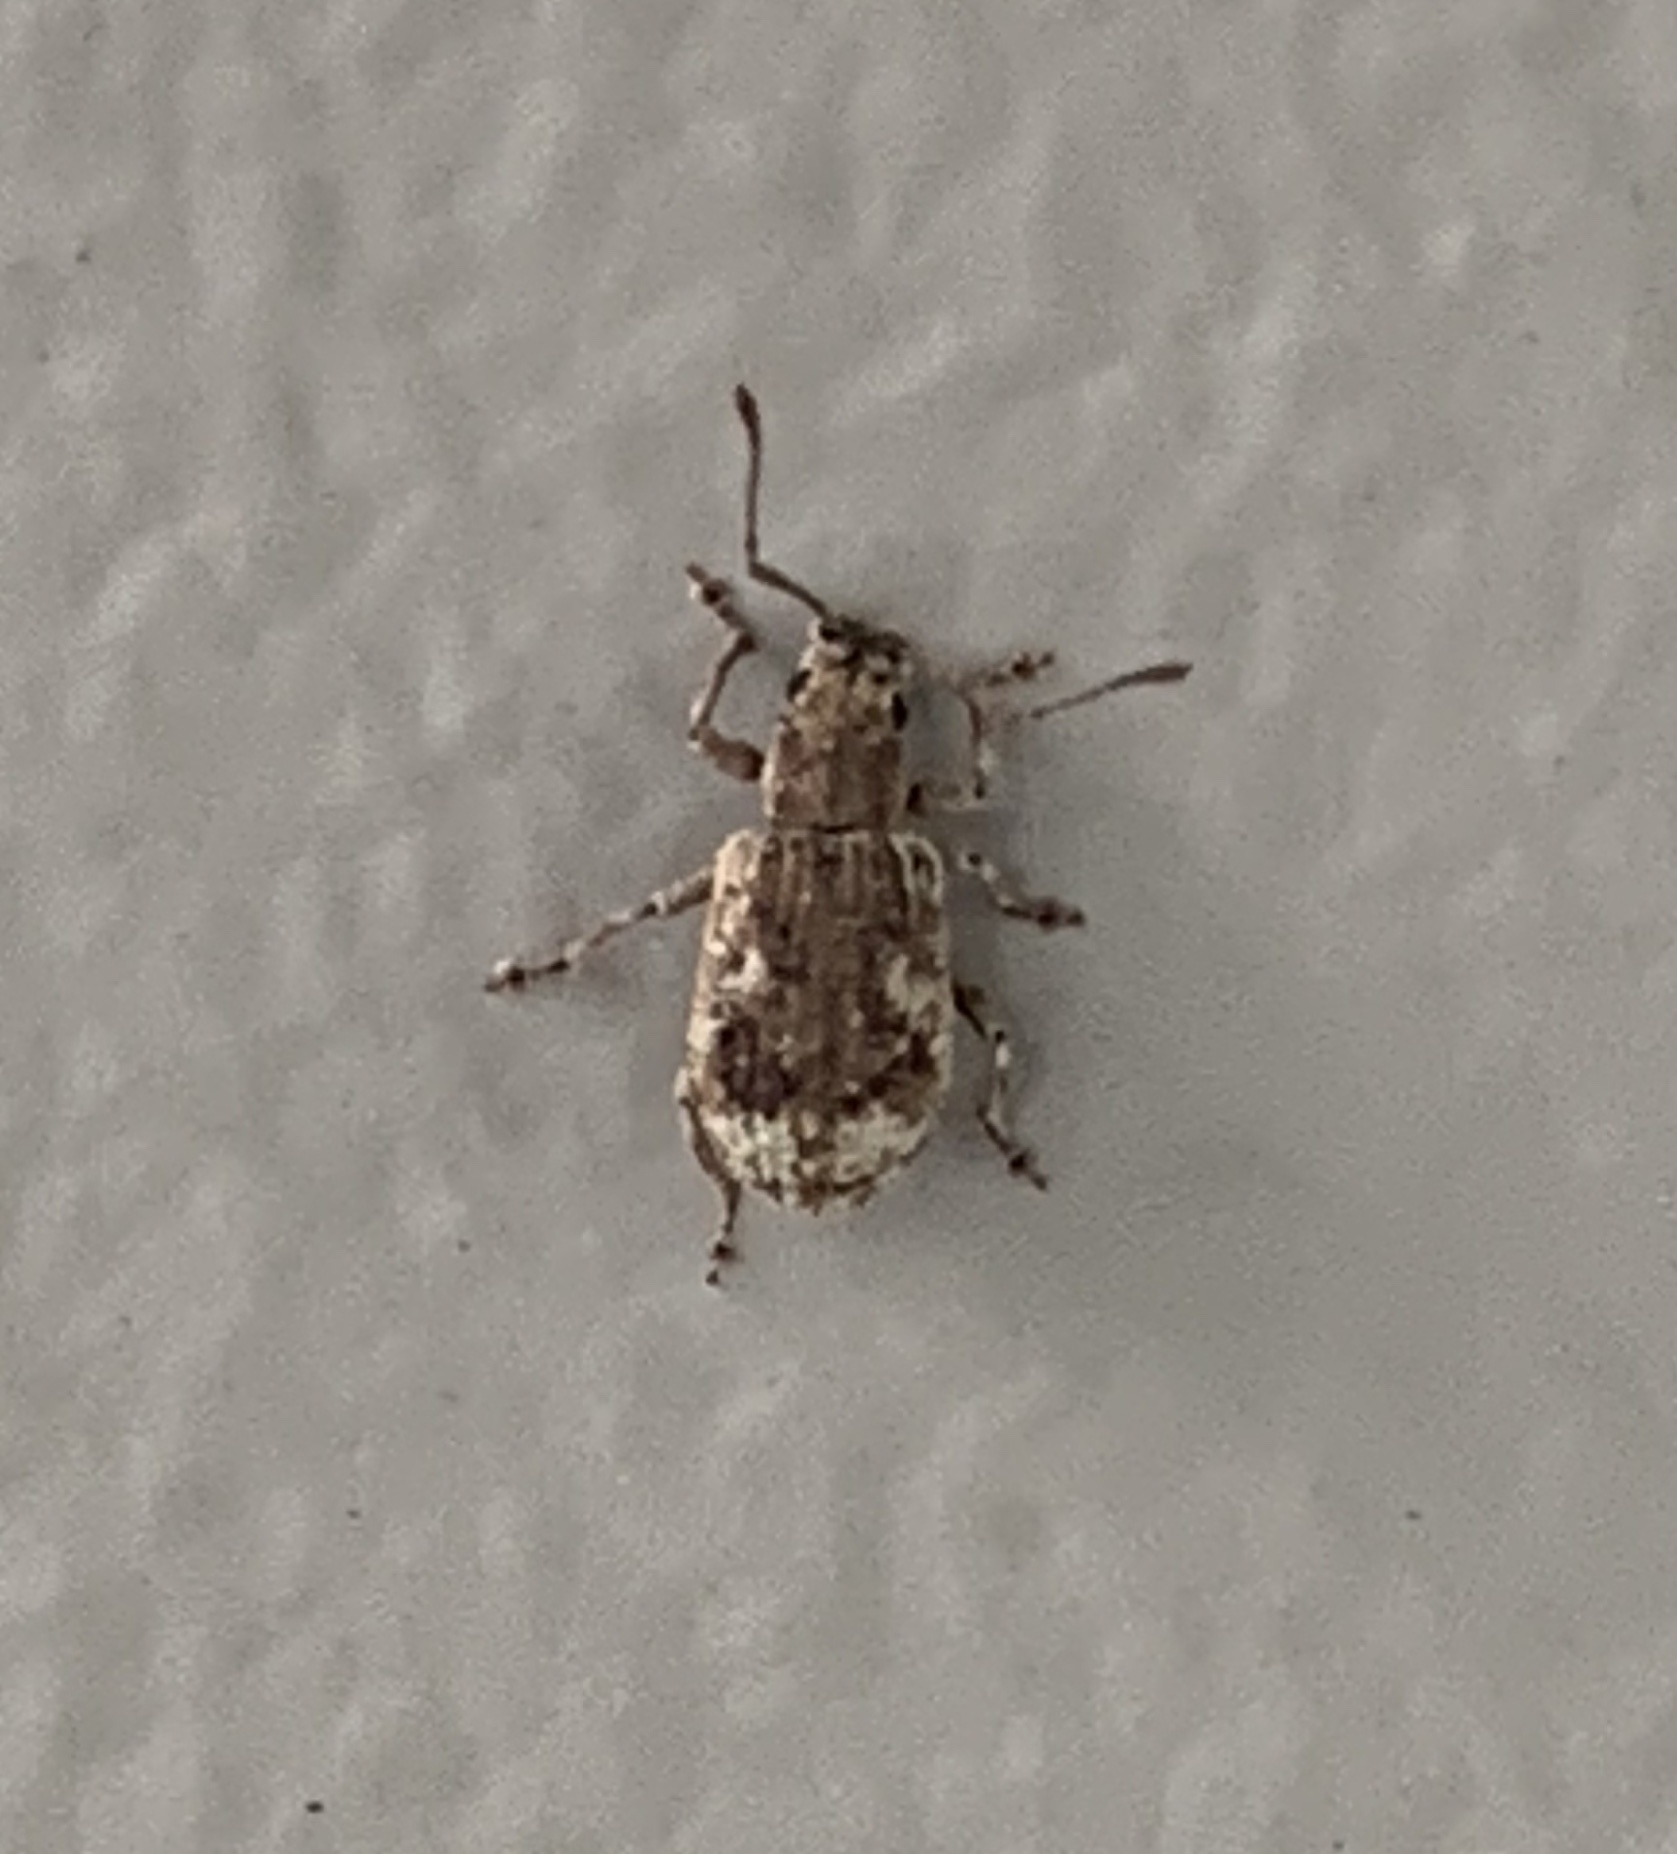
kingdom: Animalia
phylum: Arthropoda
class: Insecta
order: Coleoptera
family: Curculionidae
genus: Pseudoedophrys
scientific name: Pseudoedophrys hilleri
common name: Weevil
